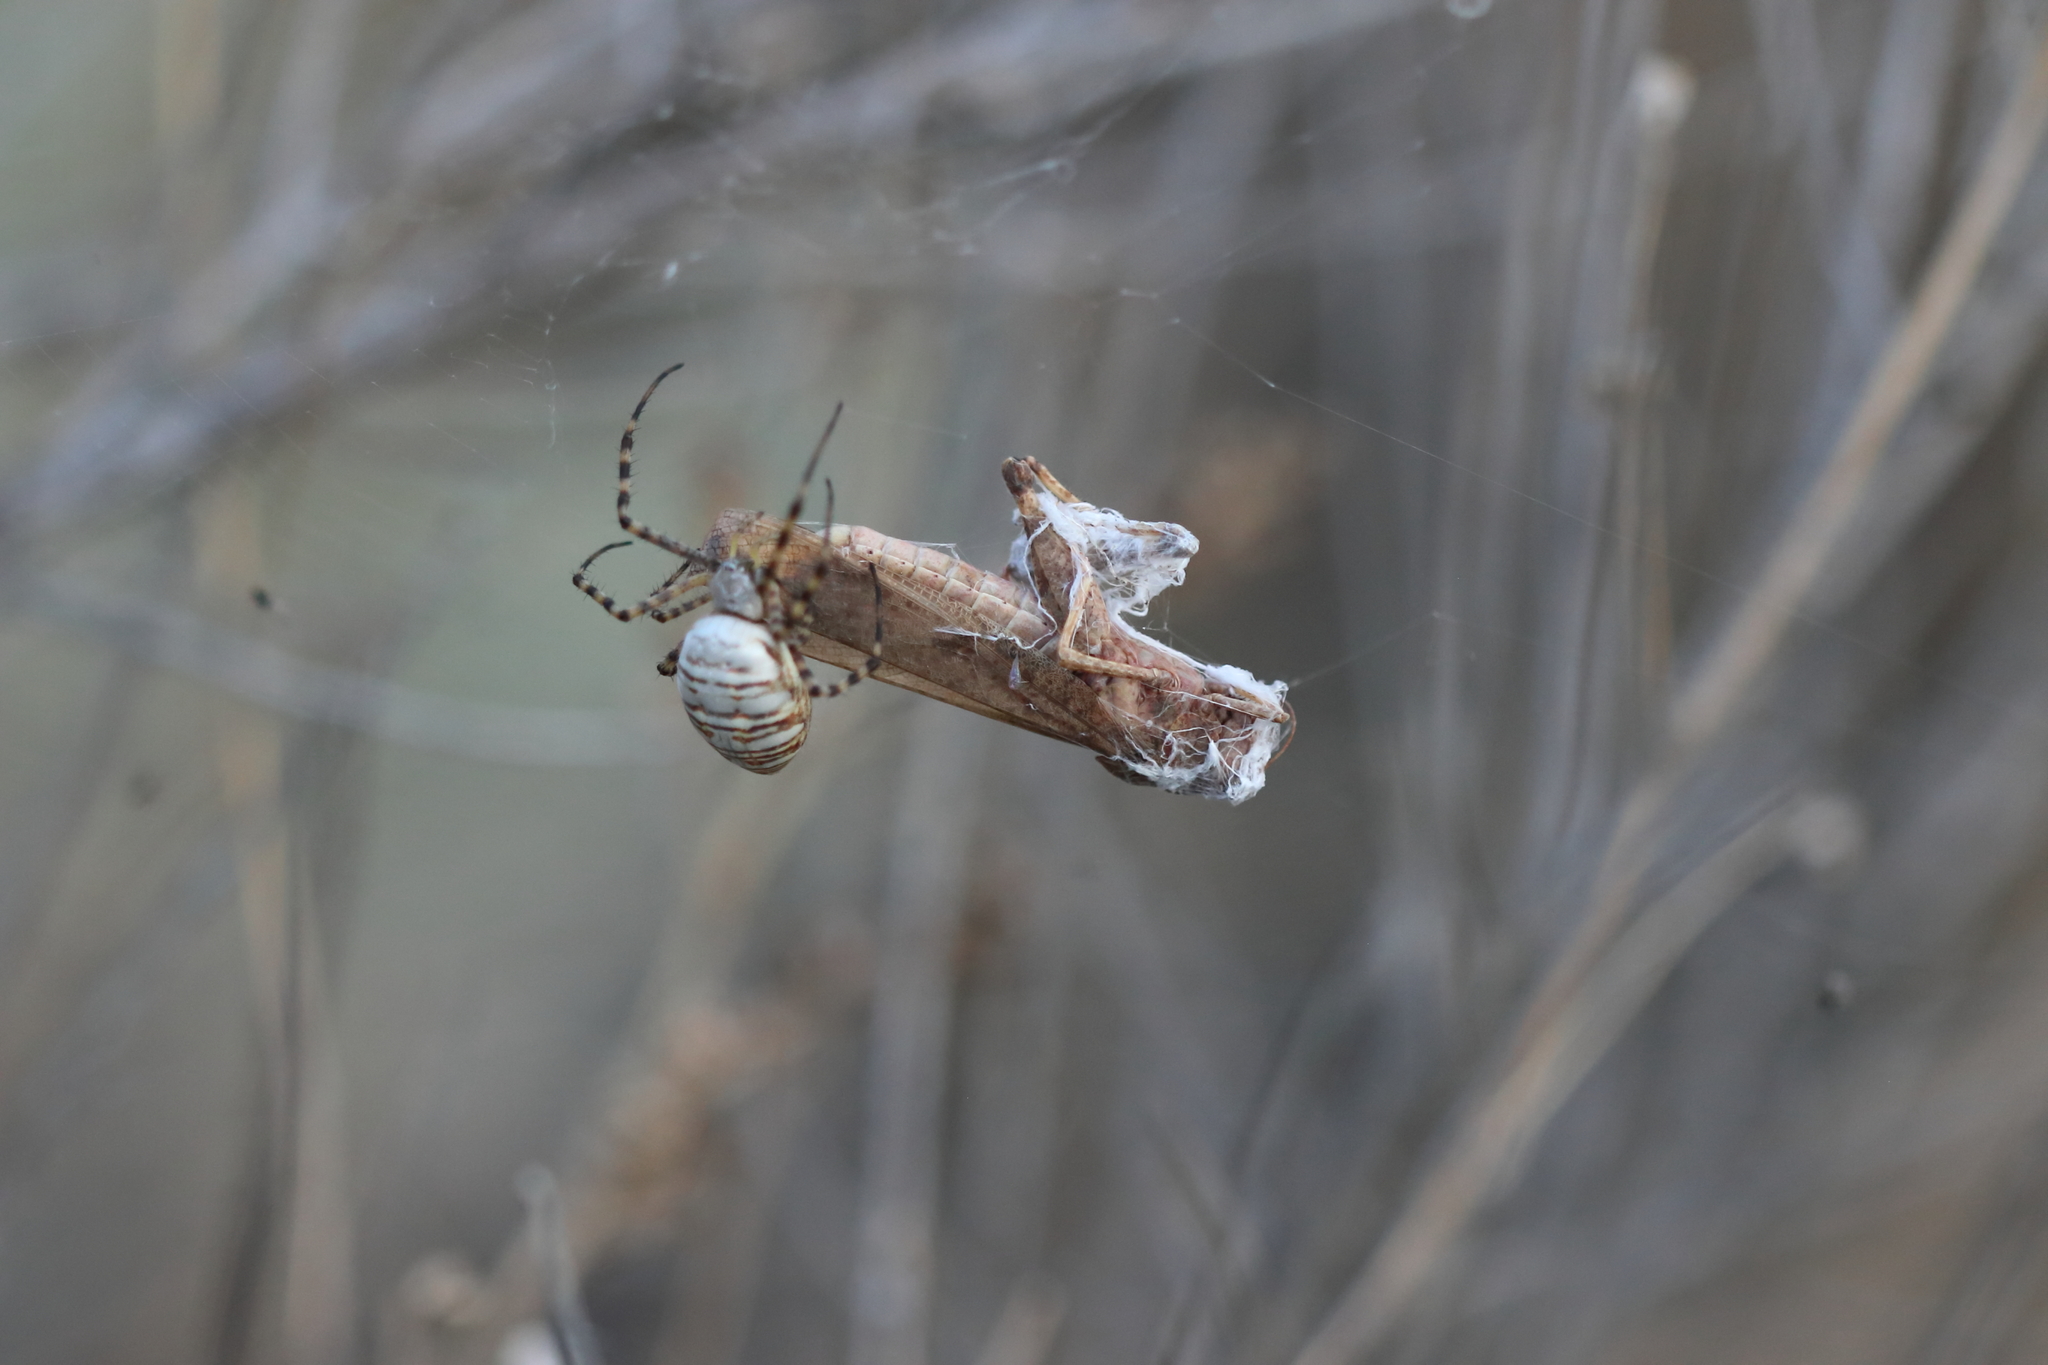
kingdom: Animalia
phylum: Arthropoda
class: Insecta
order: Orthoptera
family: Acrididae
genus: Dissosteira
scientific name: Dissosteira carolina
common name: Carolina grasshopper
